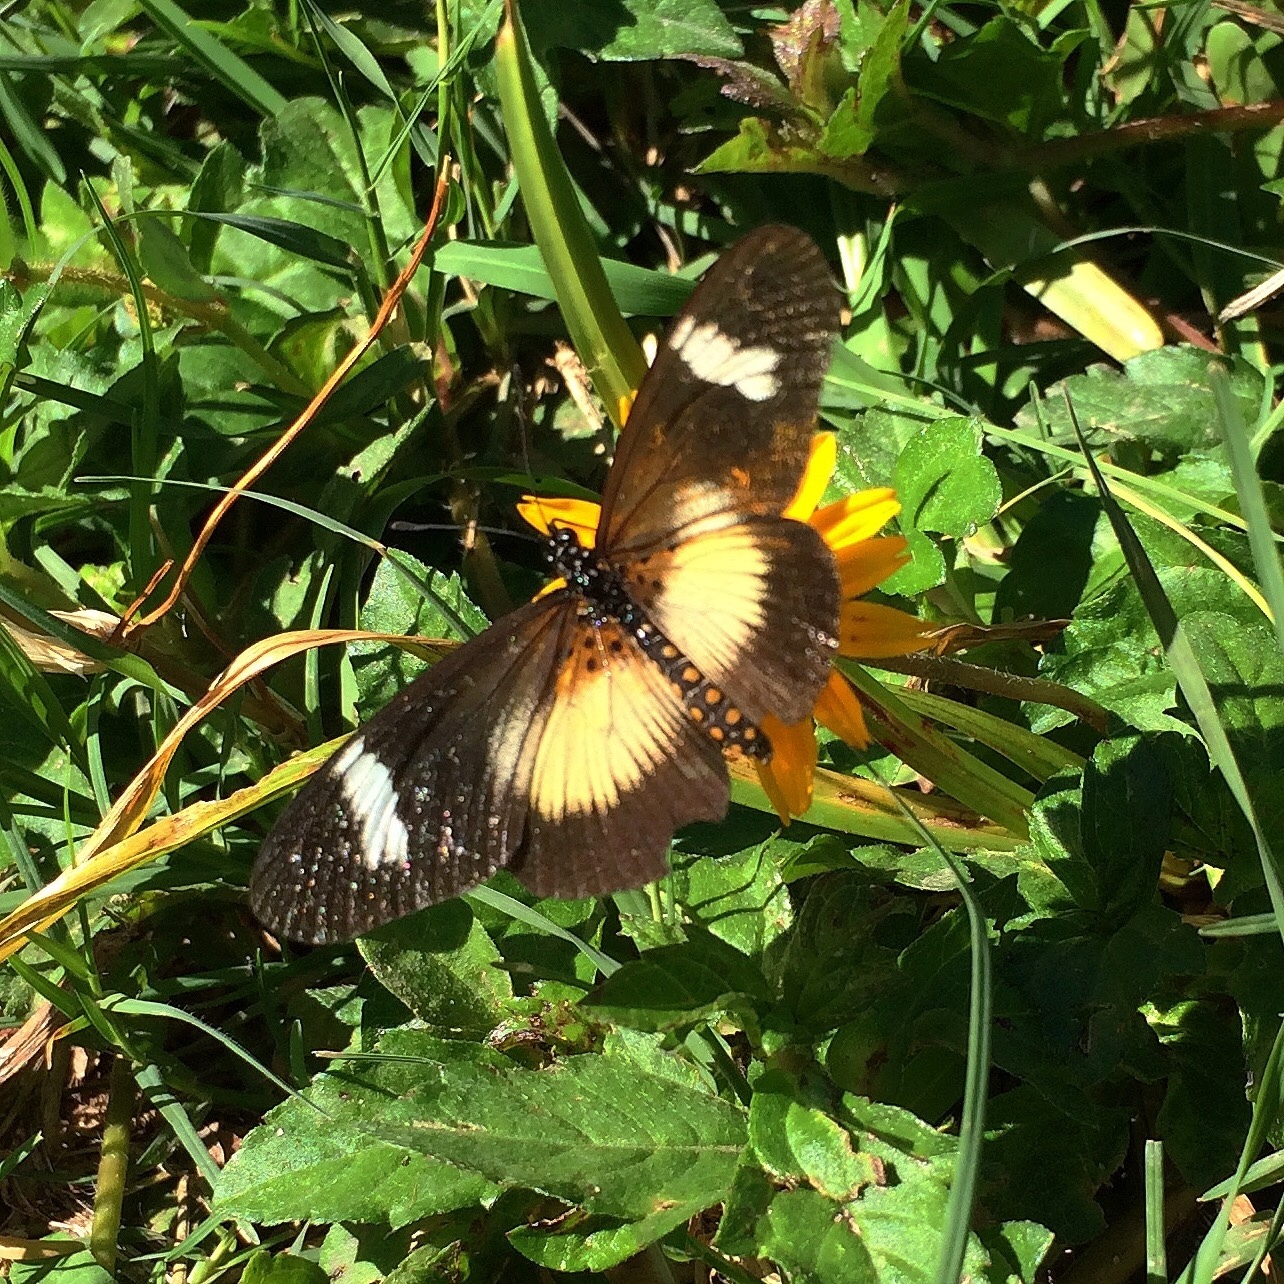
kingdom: Animalia
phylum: Arthropoda
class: Insecta
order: Lepidoptera
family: Nymphalidae
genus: Acraea
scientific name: Acraea esebria
